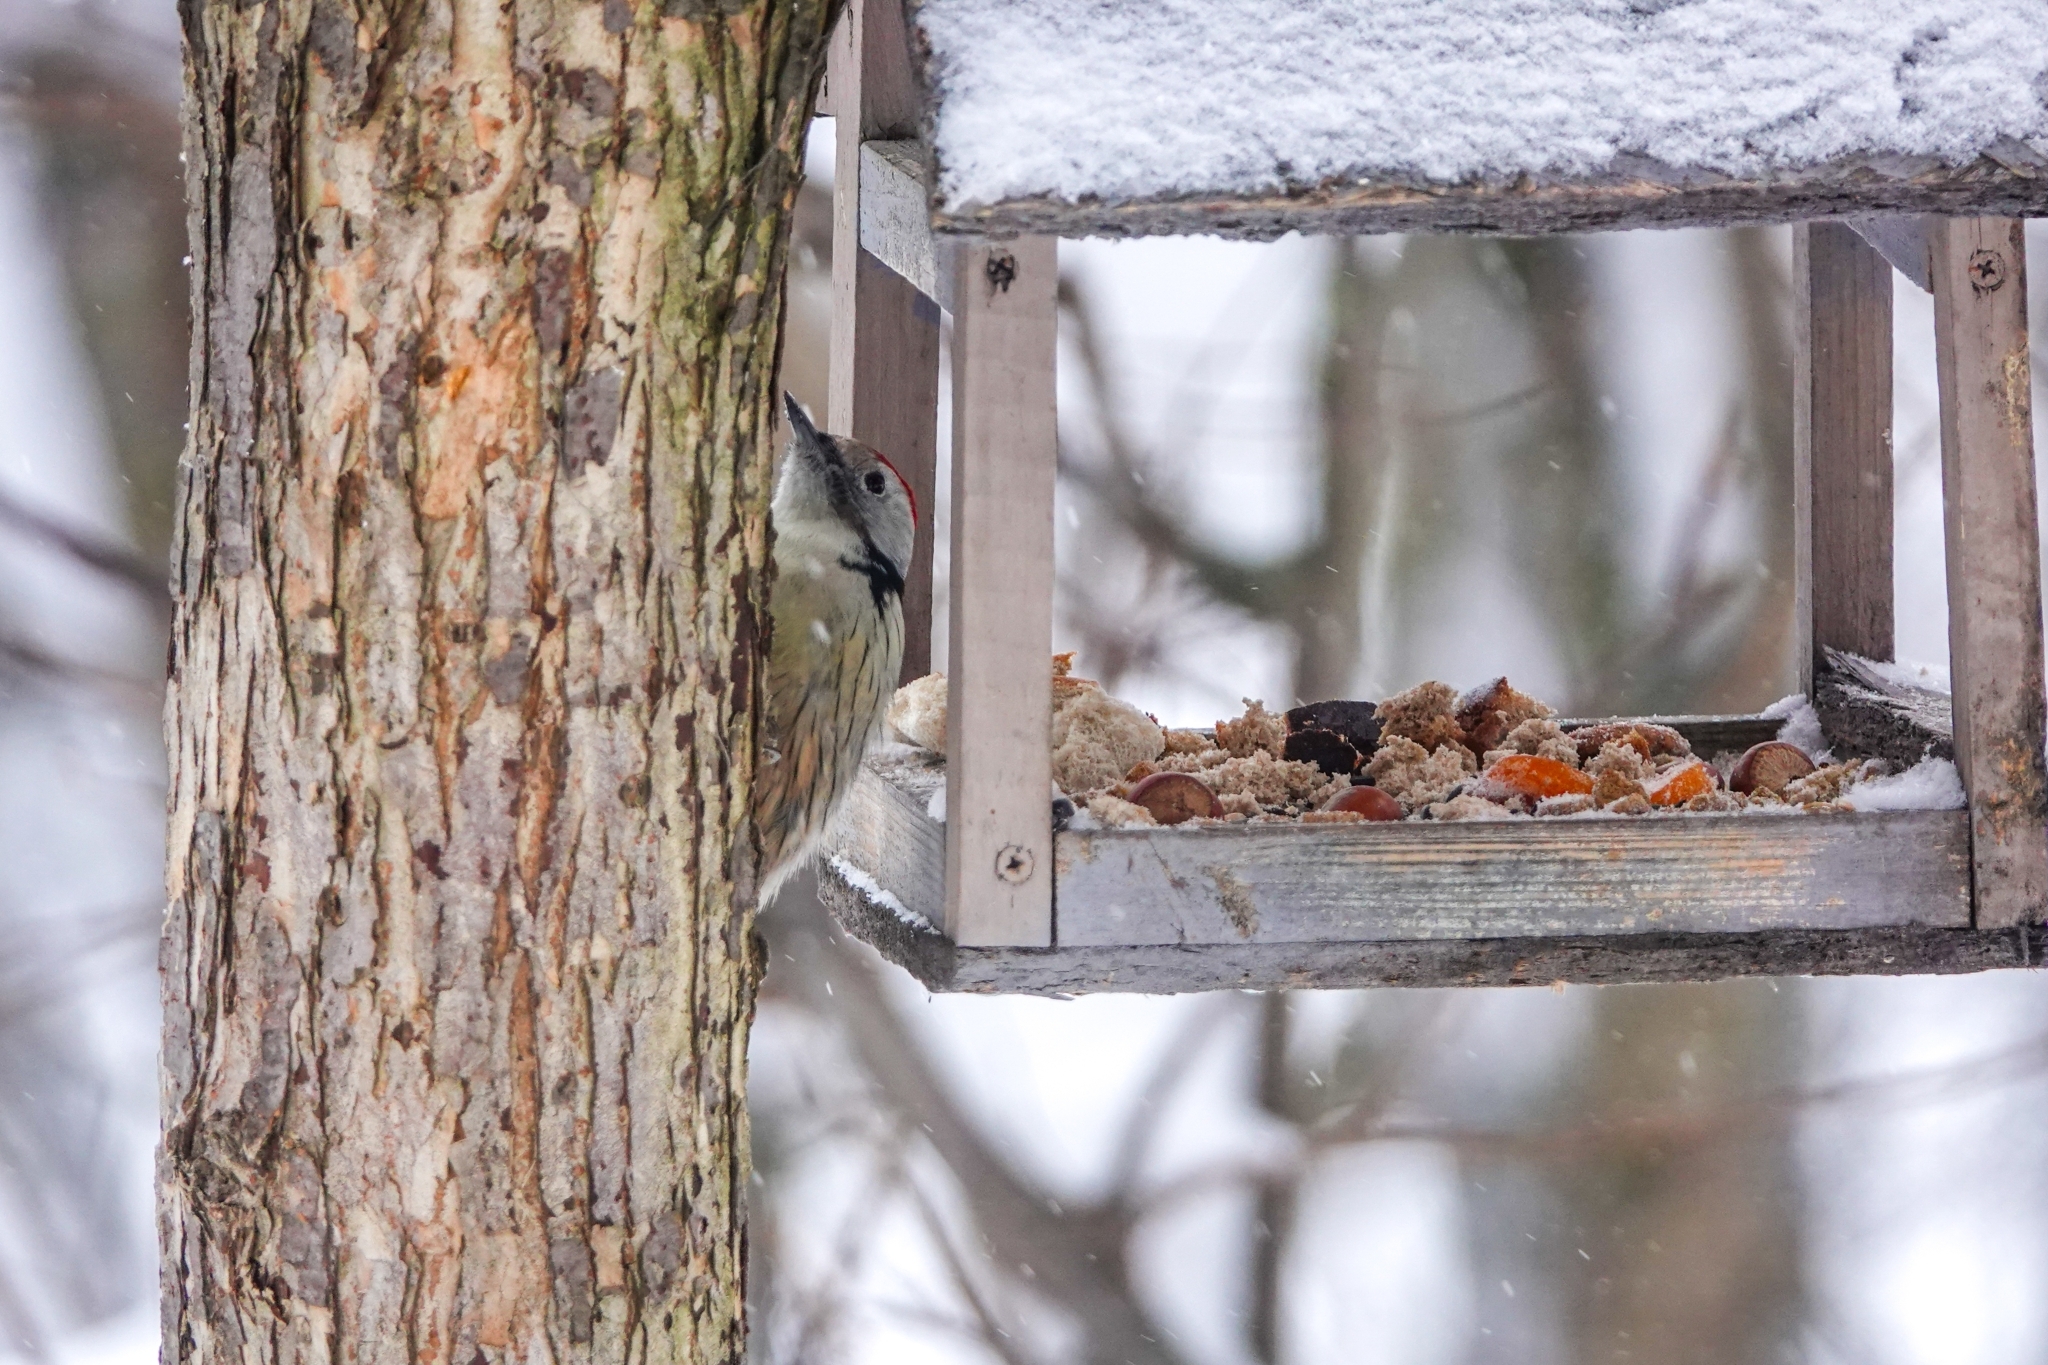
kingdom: Animalia
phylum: Chordata
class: Aves
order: Piciformes
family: Picidae
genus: Dendrocoptes
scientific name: Dendrocoptes medius
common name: Middle spotted woodpecker
